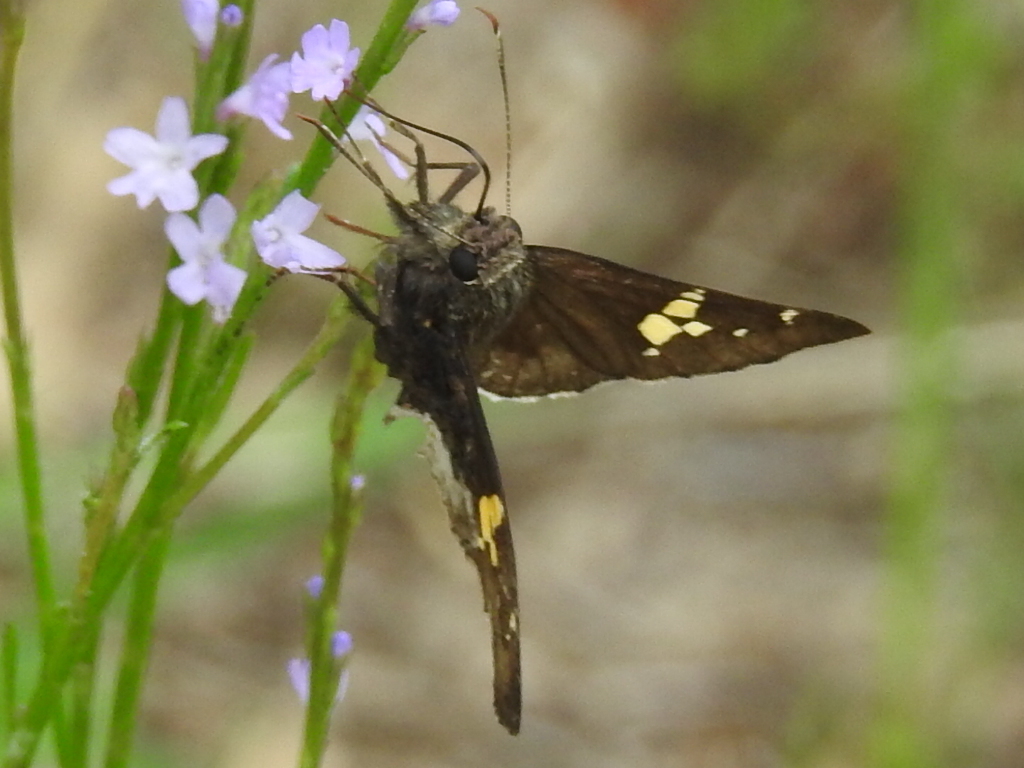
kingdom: Animalia
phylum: Arthropoda
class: Insecta
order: Lepidoptera
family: Hesperiidae
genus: Thorybes
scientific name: Thorybes lyciades
